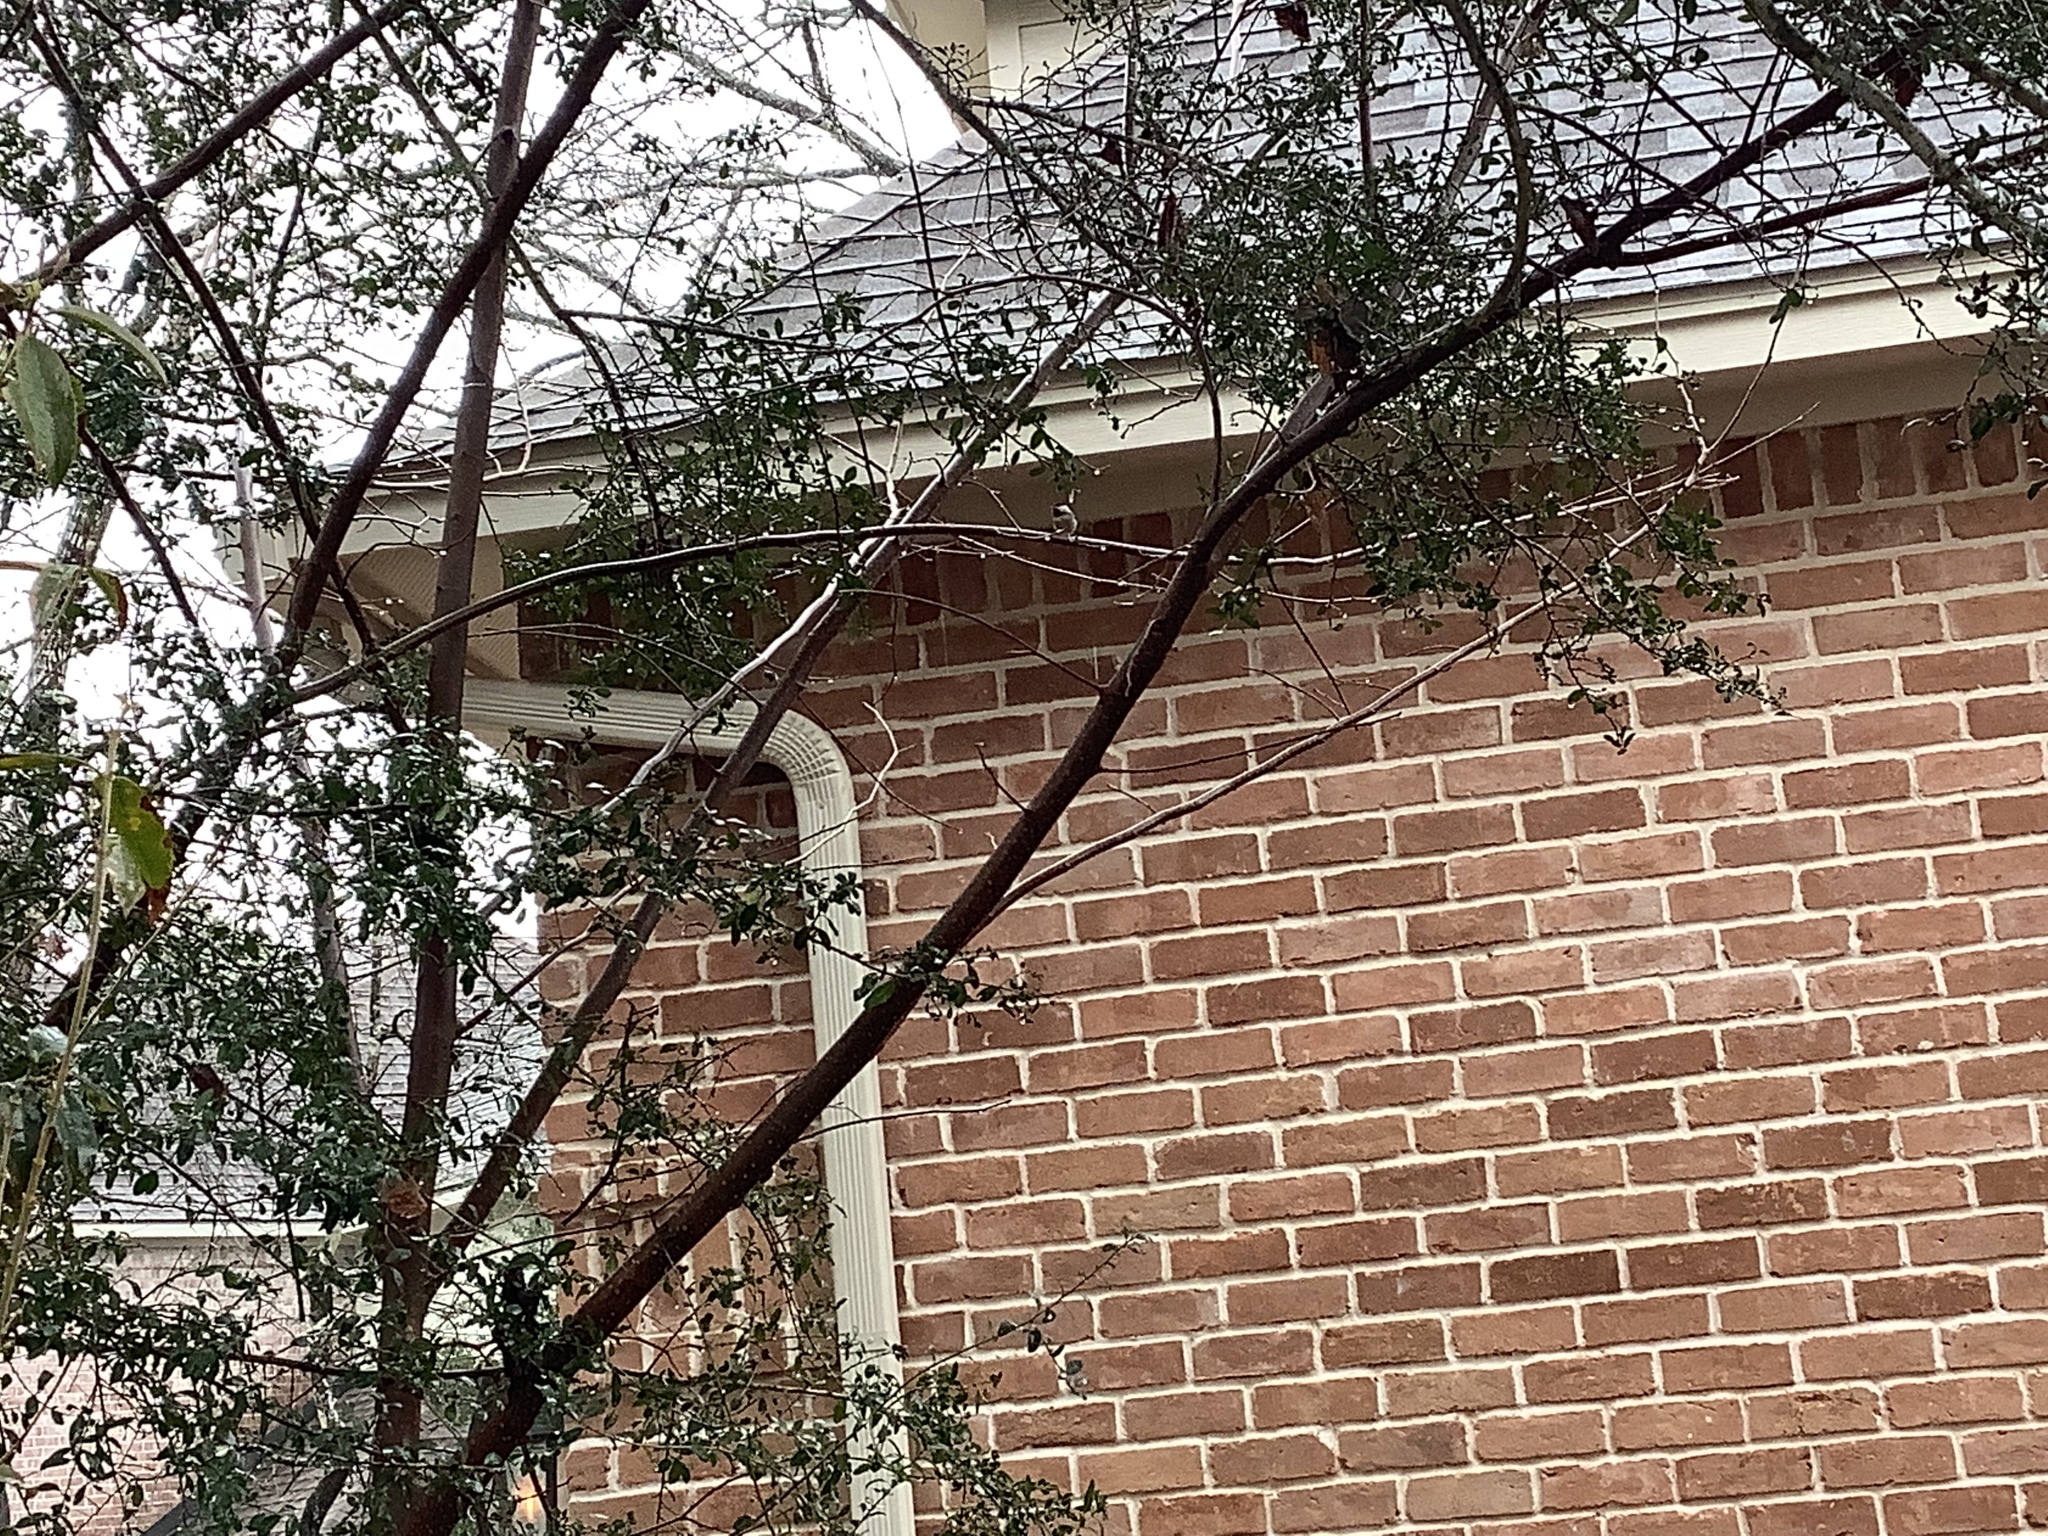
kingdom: Animalia
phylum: Chordata
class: Aves
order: Passeriformes
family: Paridae
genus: Poecile
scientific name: Poecile carolinensis
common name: Carolina chickadee
